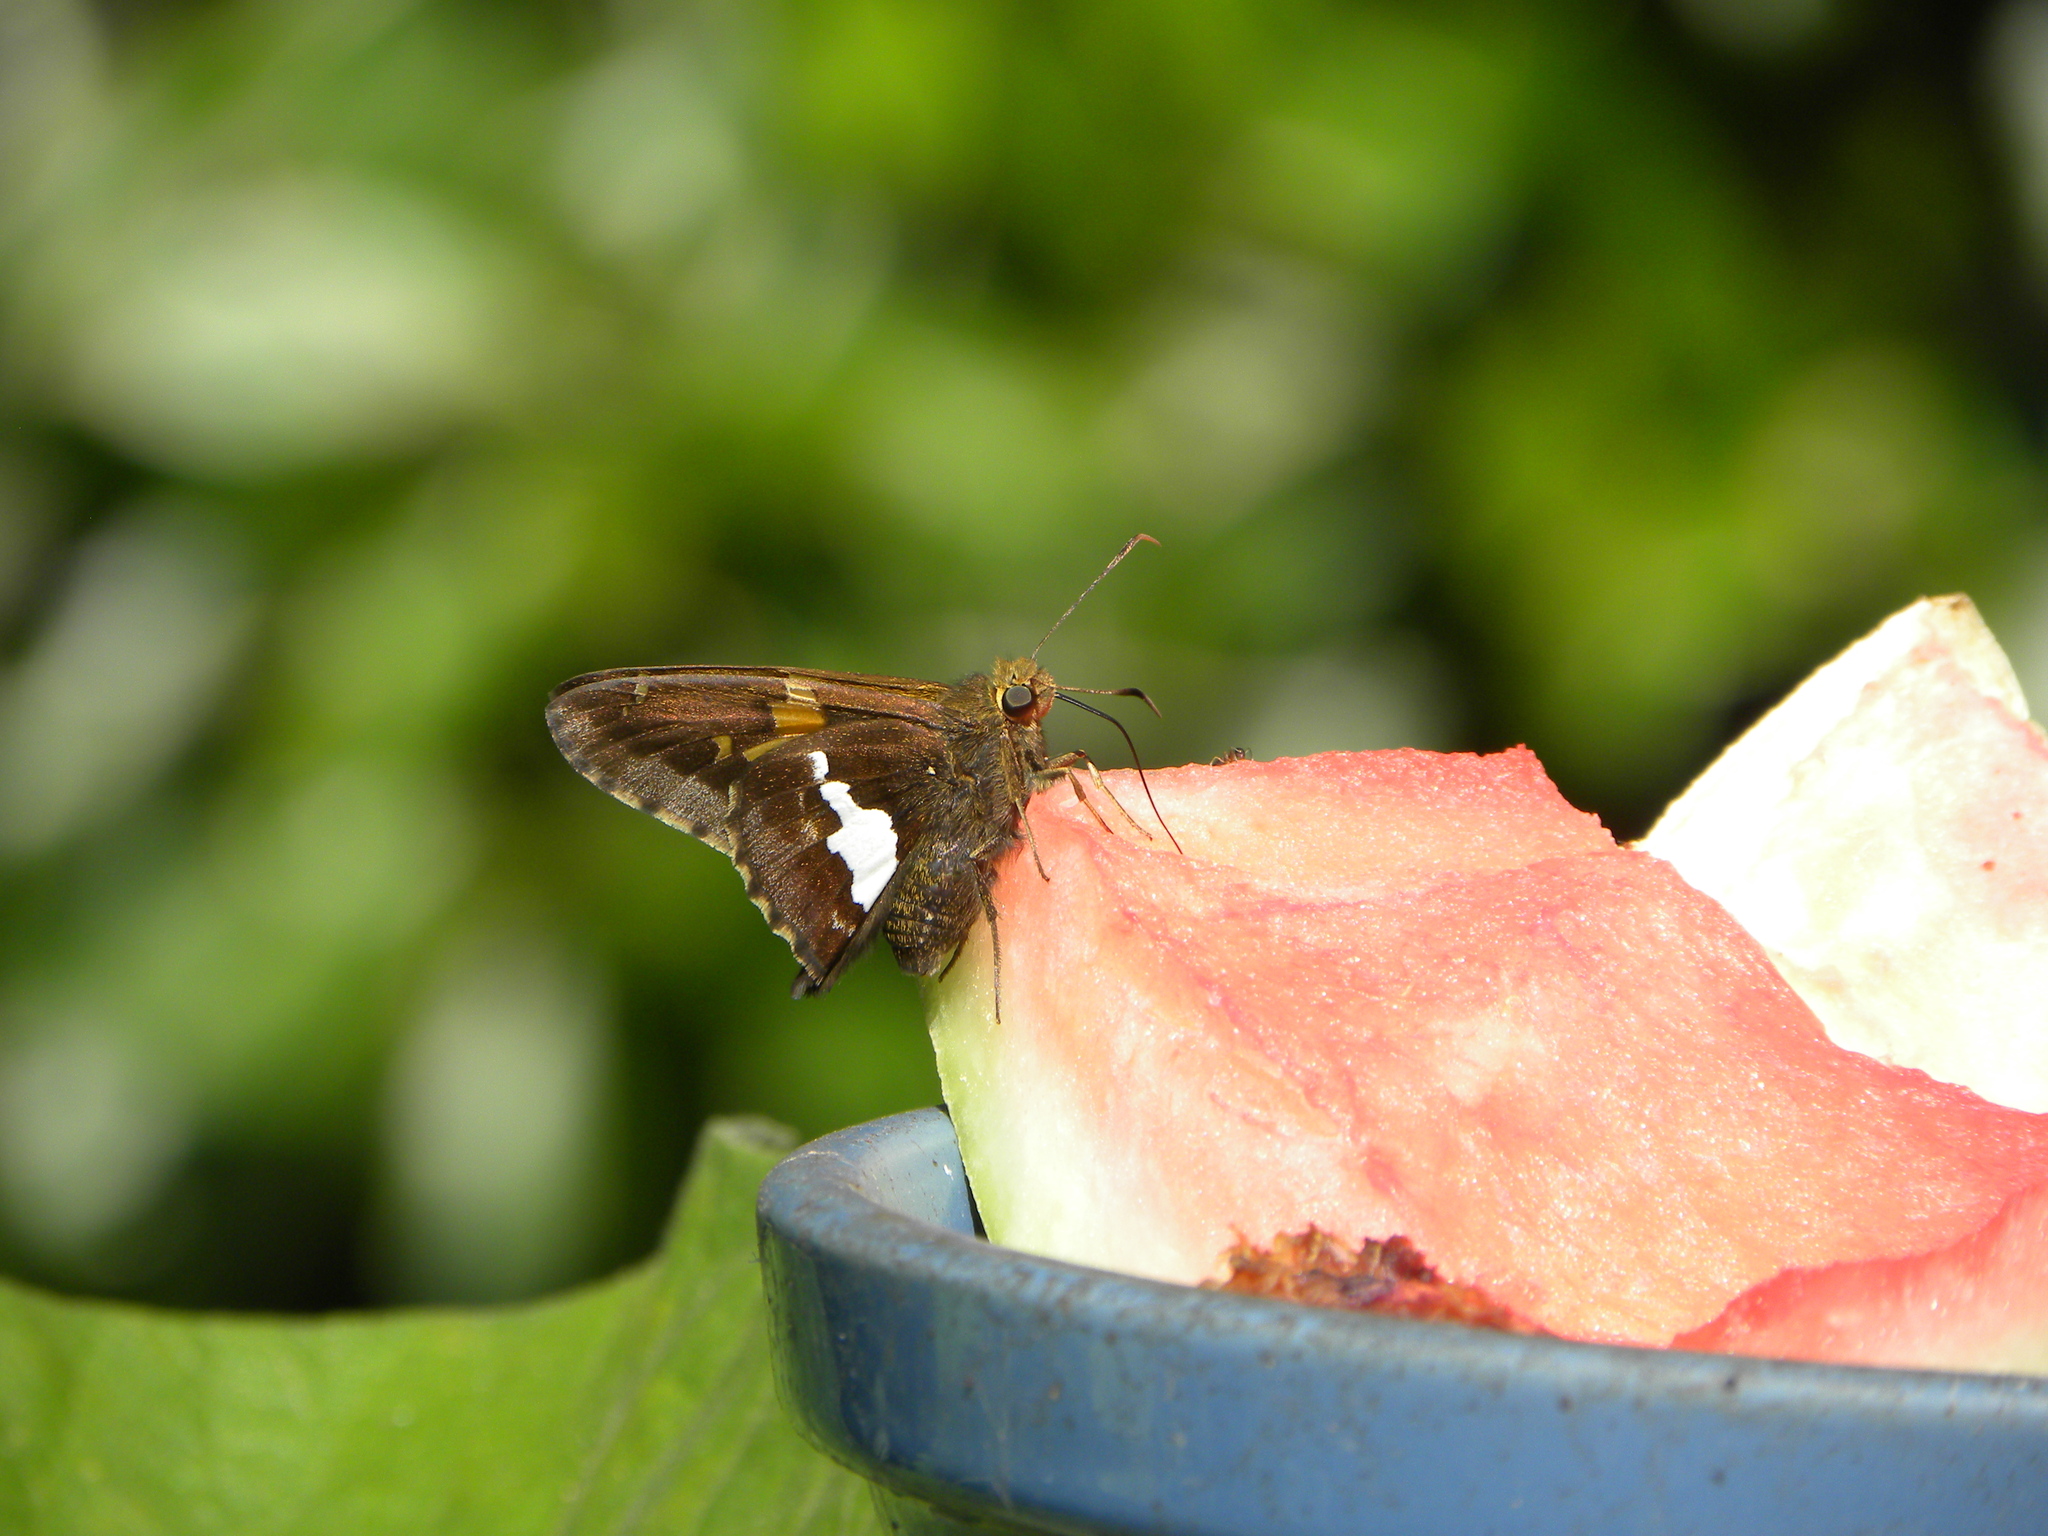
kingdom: Animalia
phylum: Arthropoda
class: Insecta
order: Lepidoptera
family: Hesperiidae
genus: Epargyreus
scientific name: Epargyreus clarus
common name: Silver-spotted skipper
